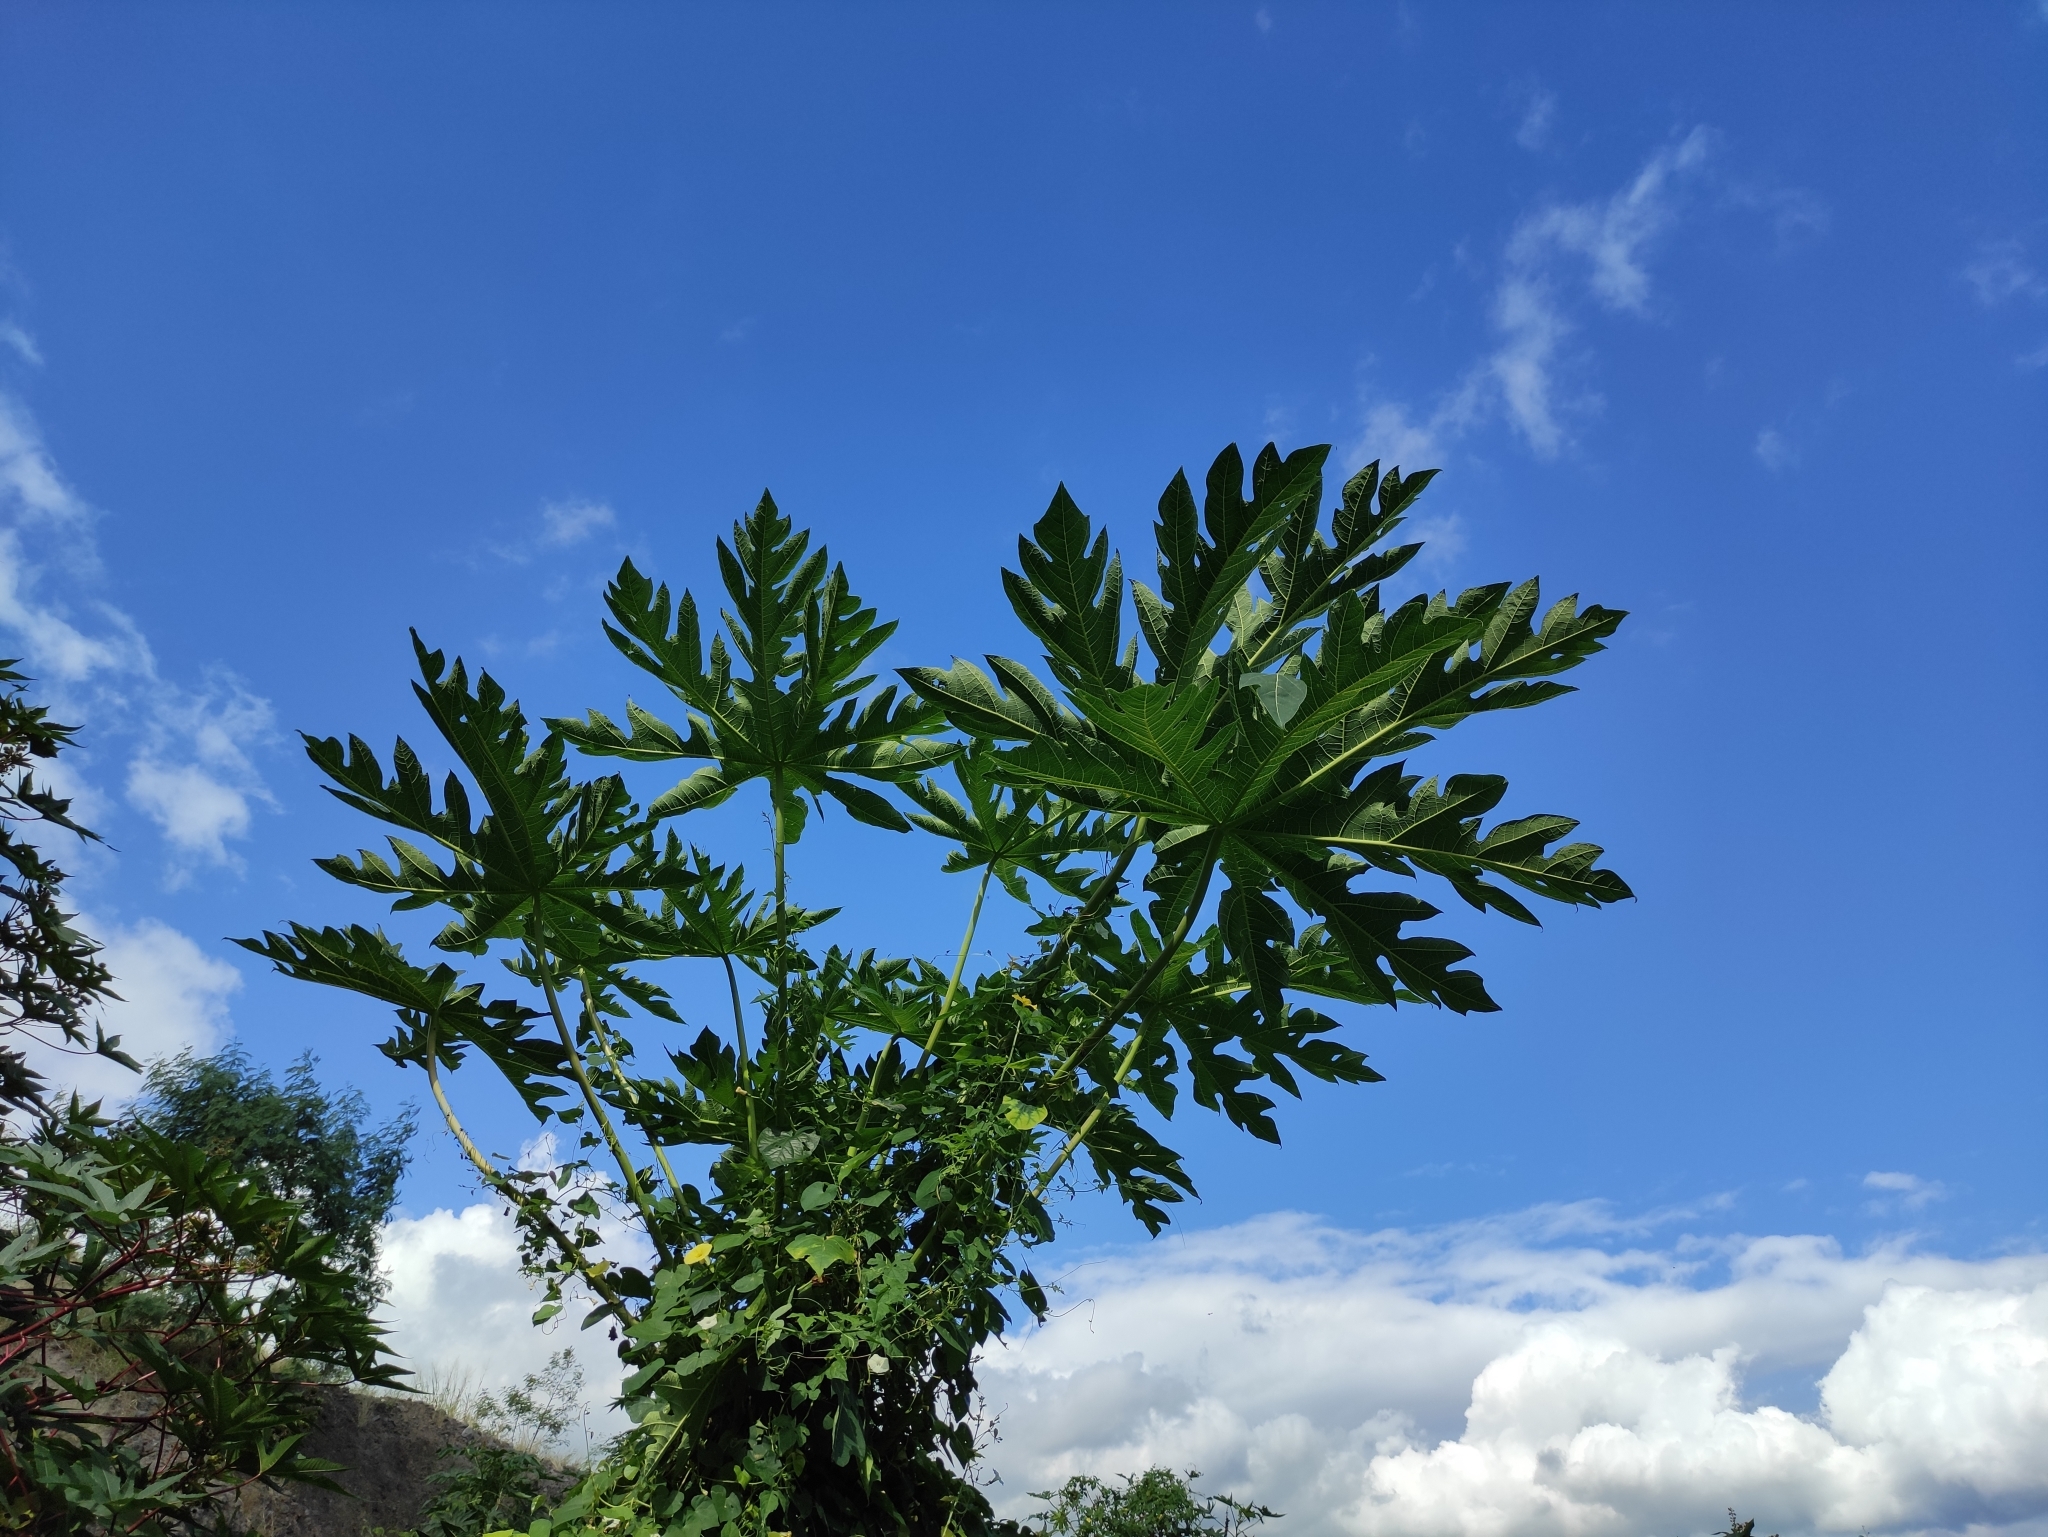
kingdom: Plantae
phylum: Tracheophyta
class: Magnoliopsida
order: Brassicales
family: Caricaceae
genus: Carica
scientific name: Carica papaya
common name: Papaya
